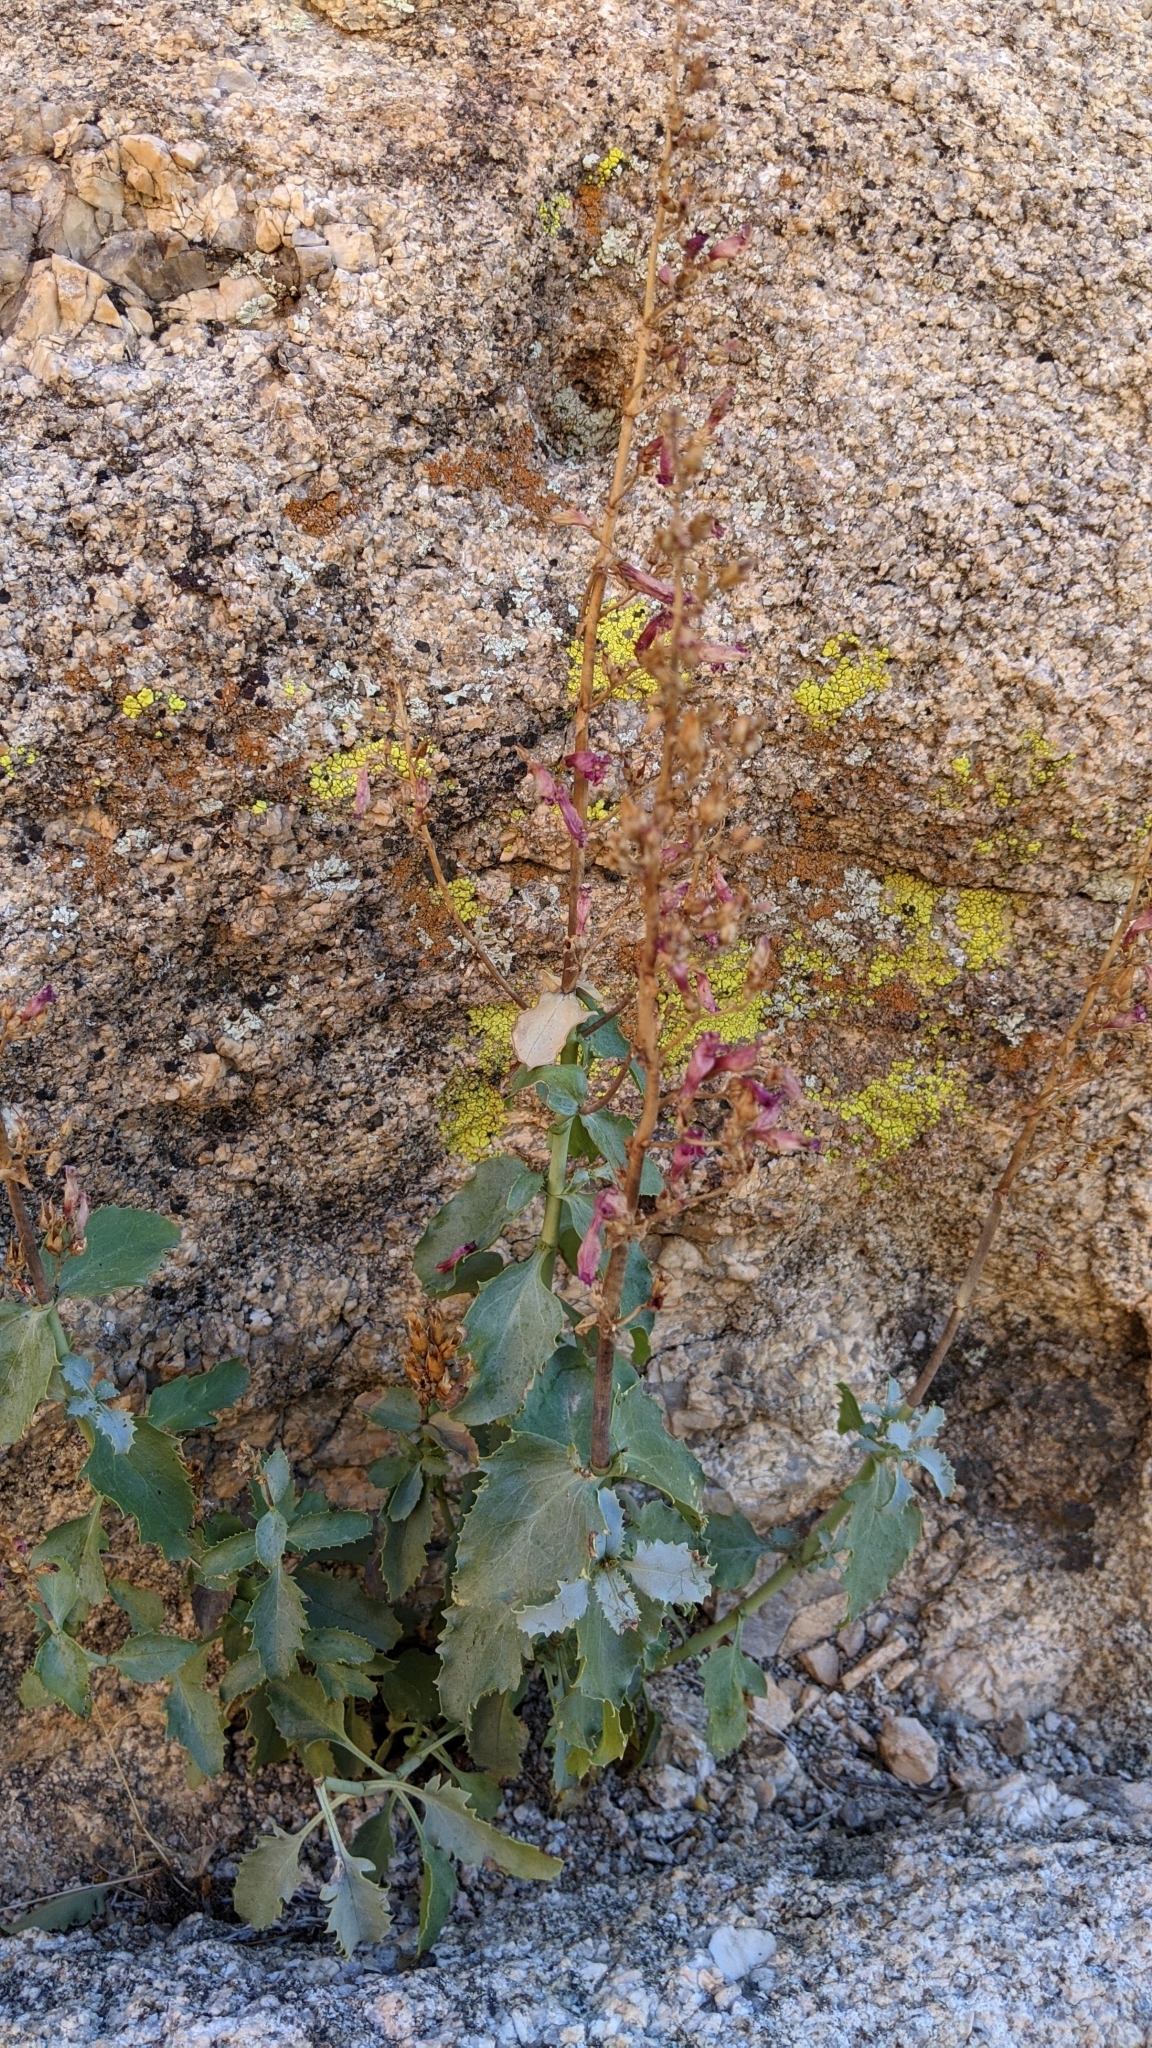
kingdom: Plantae
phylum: Tracheophyta
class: Magnoliopsida
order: Lamiales
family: Plantaginaceae
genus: Penstemon
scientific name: Penstemon clevelandii
